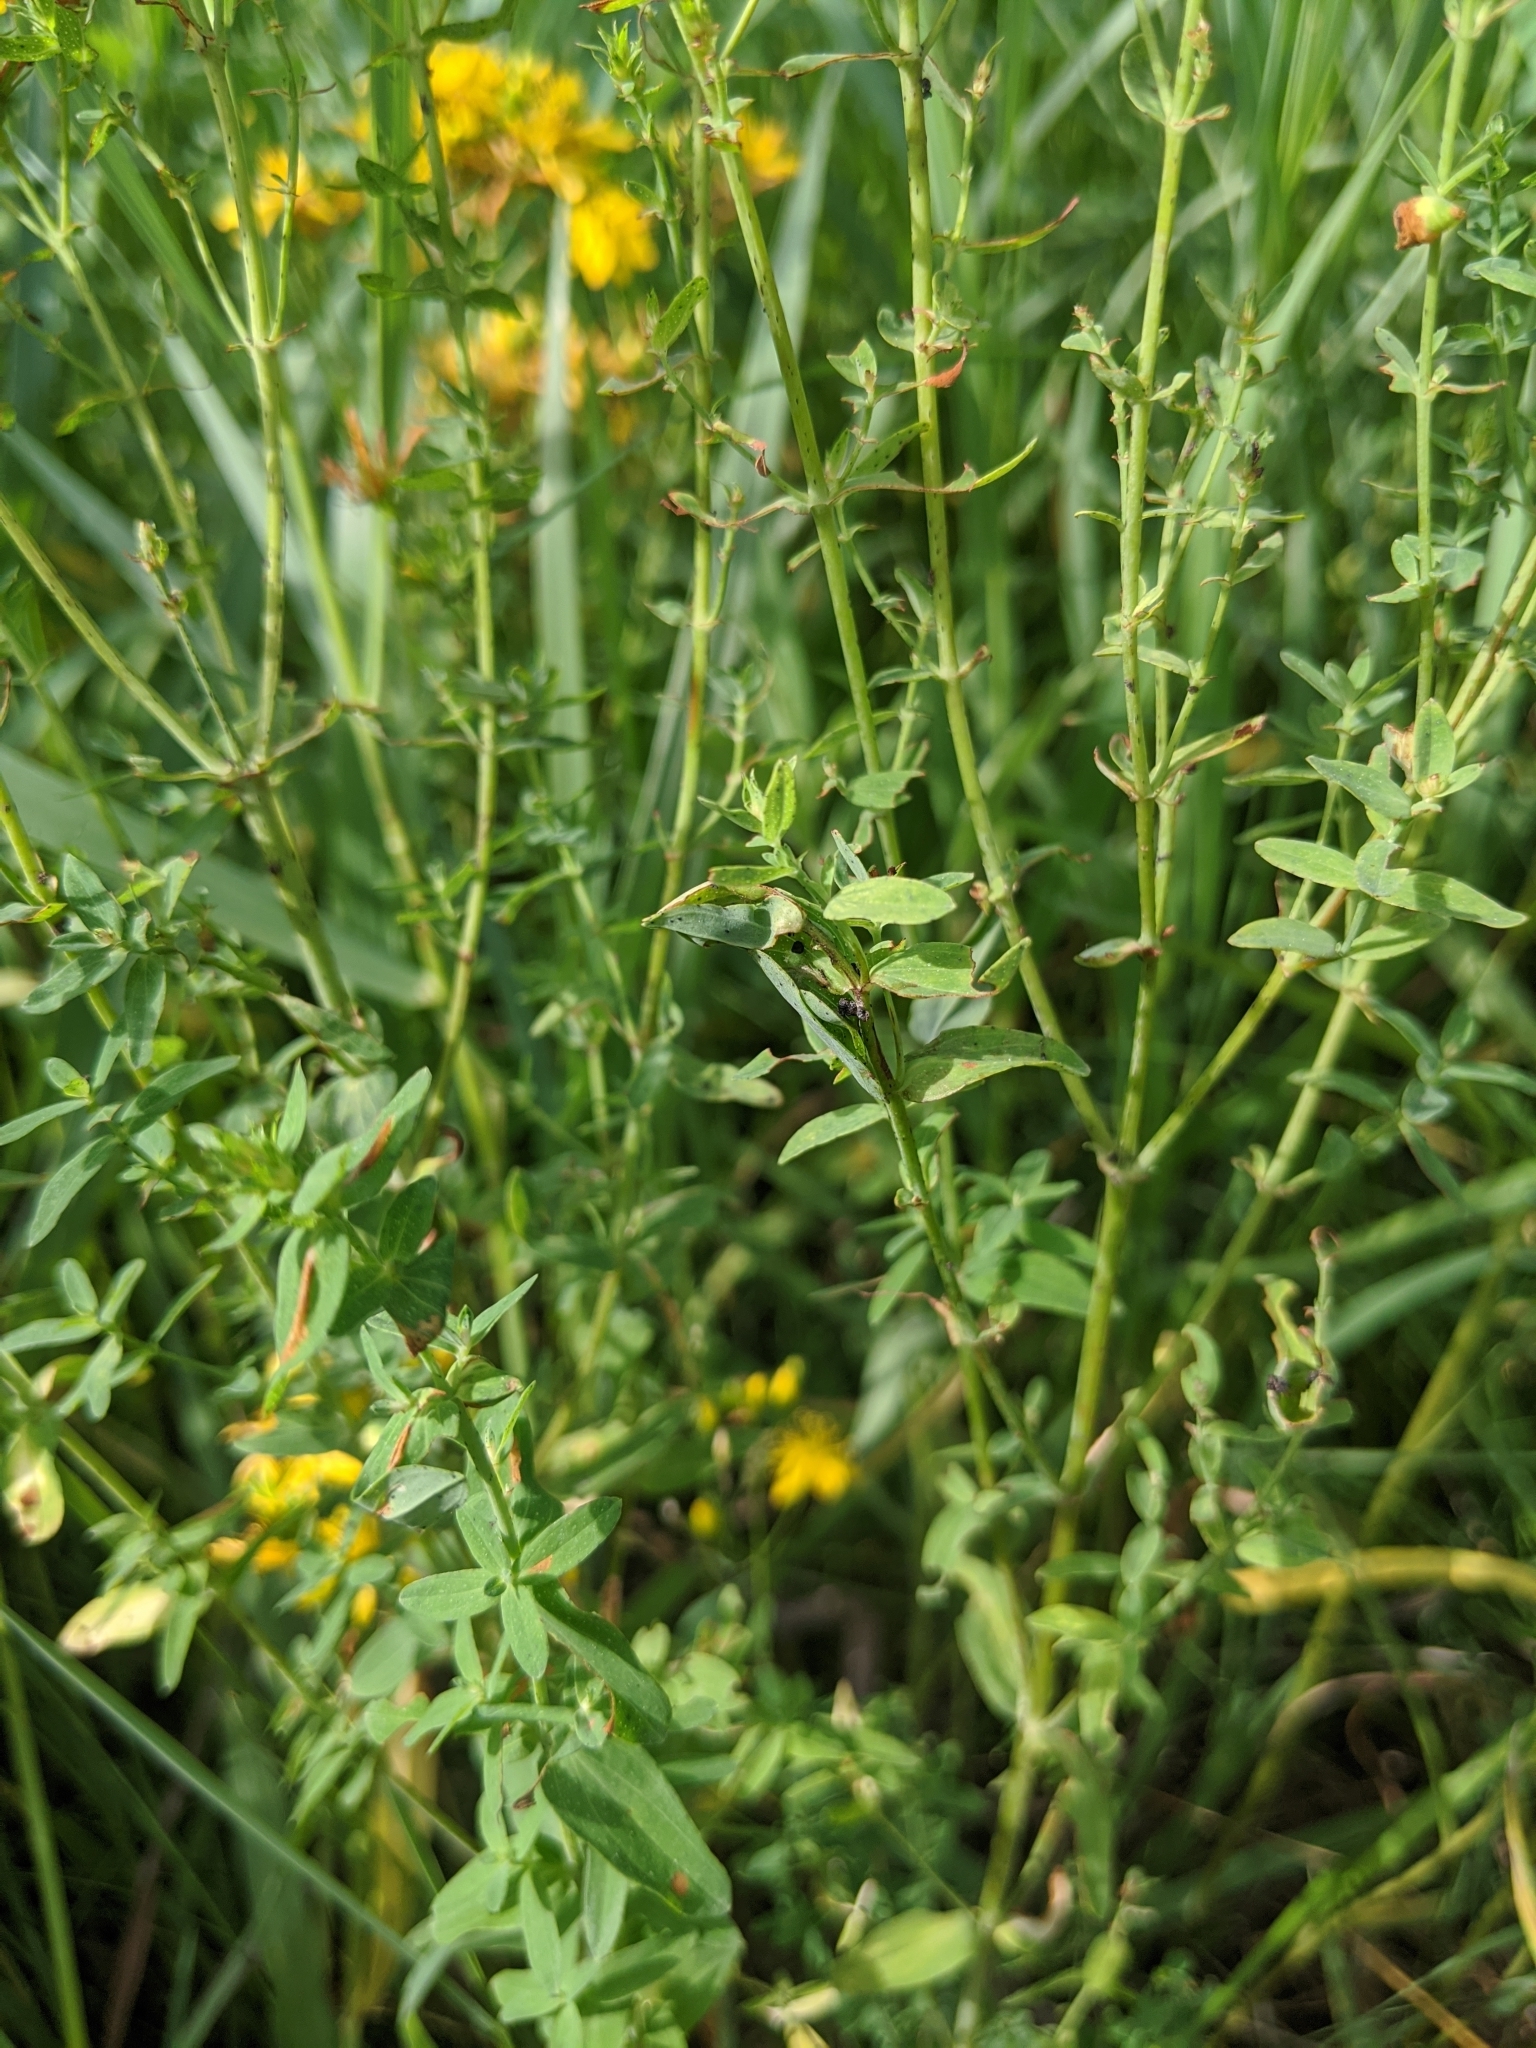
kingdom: Plantae
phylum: Tracheophyta
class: Magnoliopsida
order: Malpighiales
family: Hypericaceae
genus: Hypericum
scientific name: Hypericum perforatum
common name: Common st. johnswort
